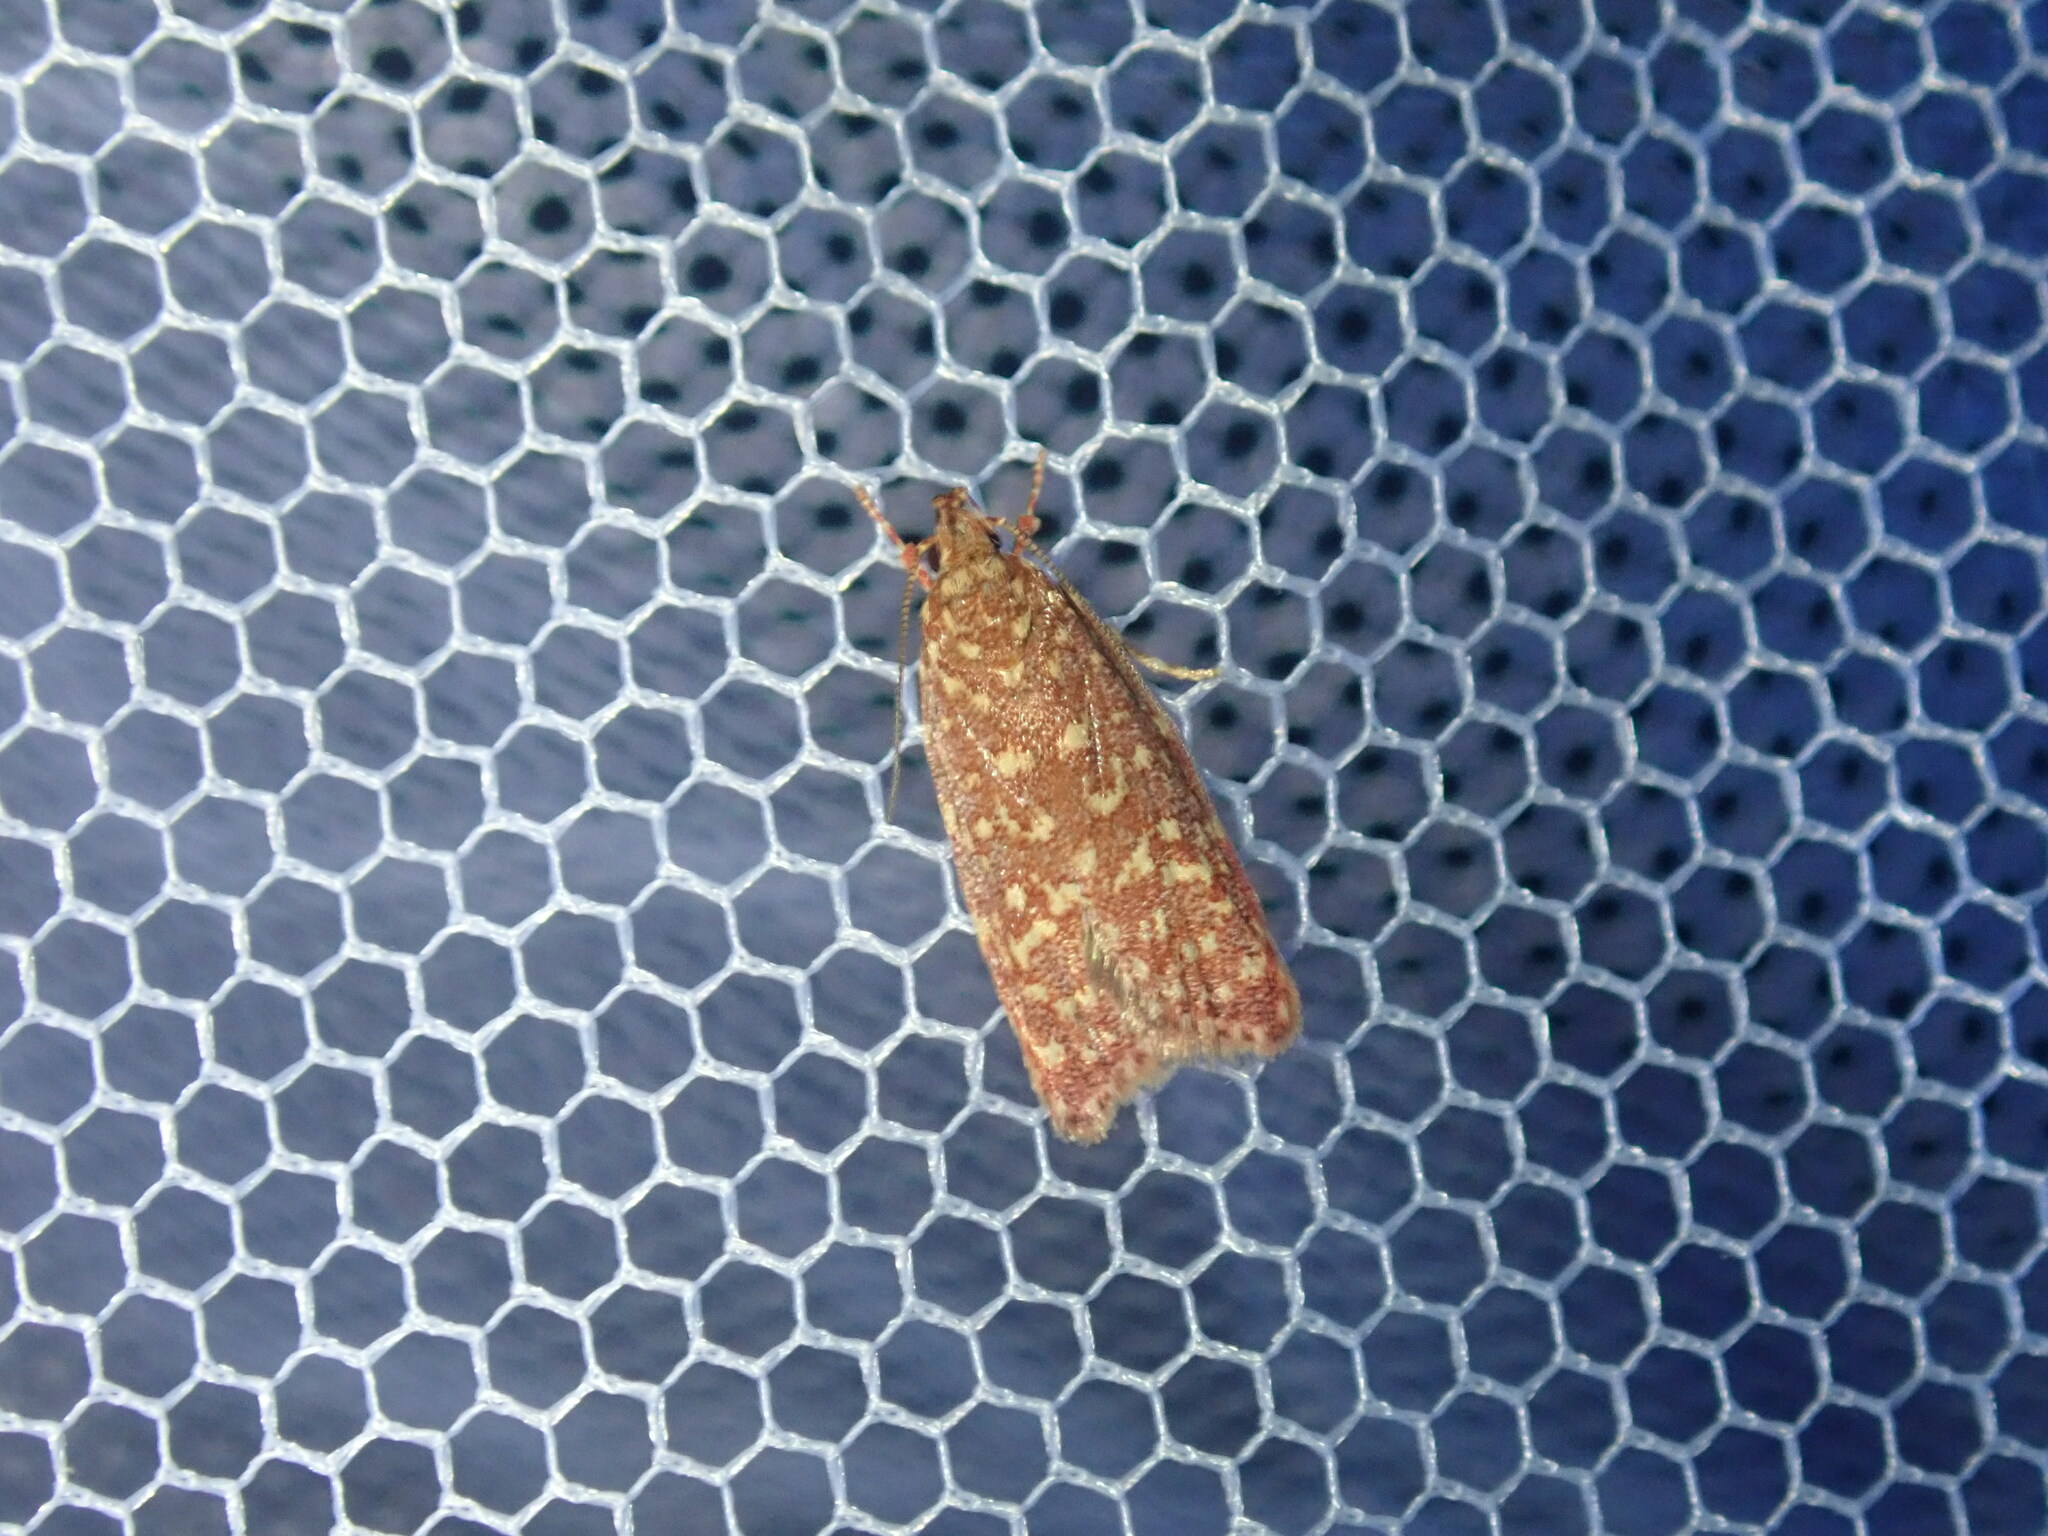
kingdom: Animalia
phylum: Arthropoda
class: Insecta
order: Lepidoptera
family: Oecophoridae
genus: Syringoseca
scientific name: Syringoseca rhodoxantha
